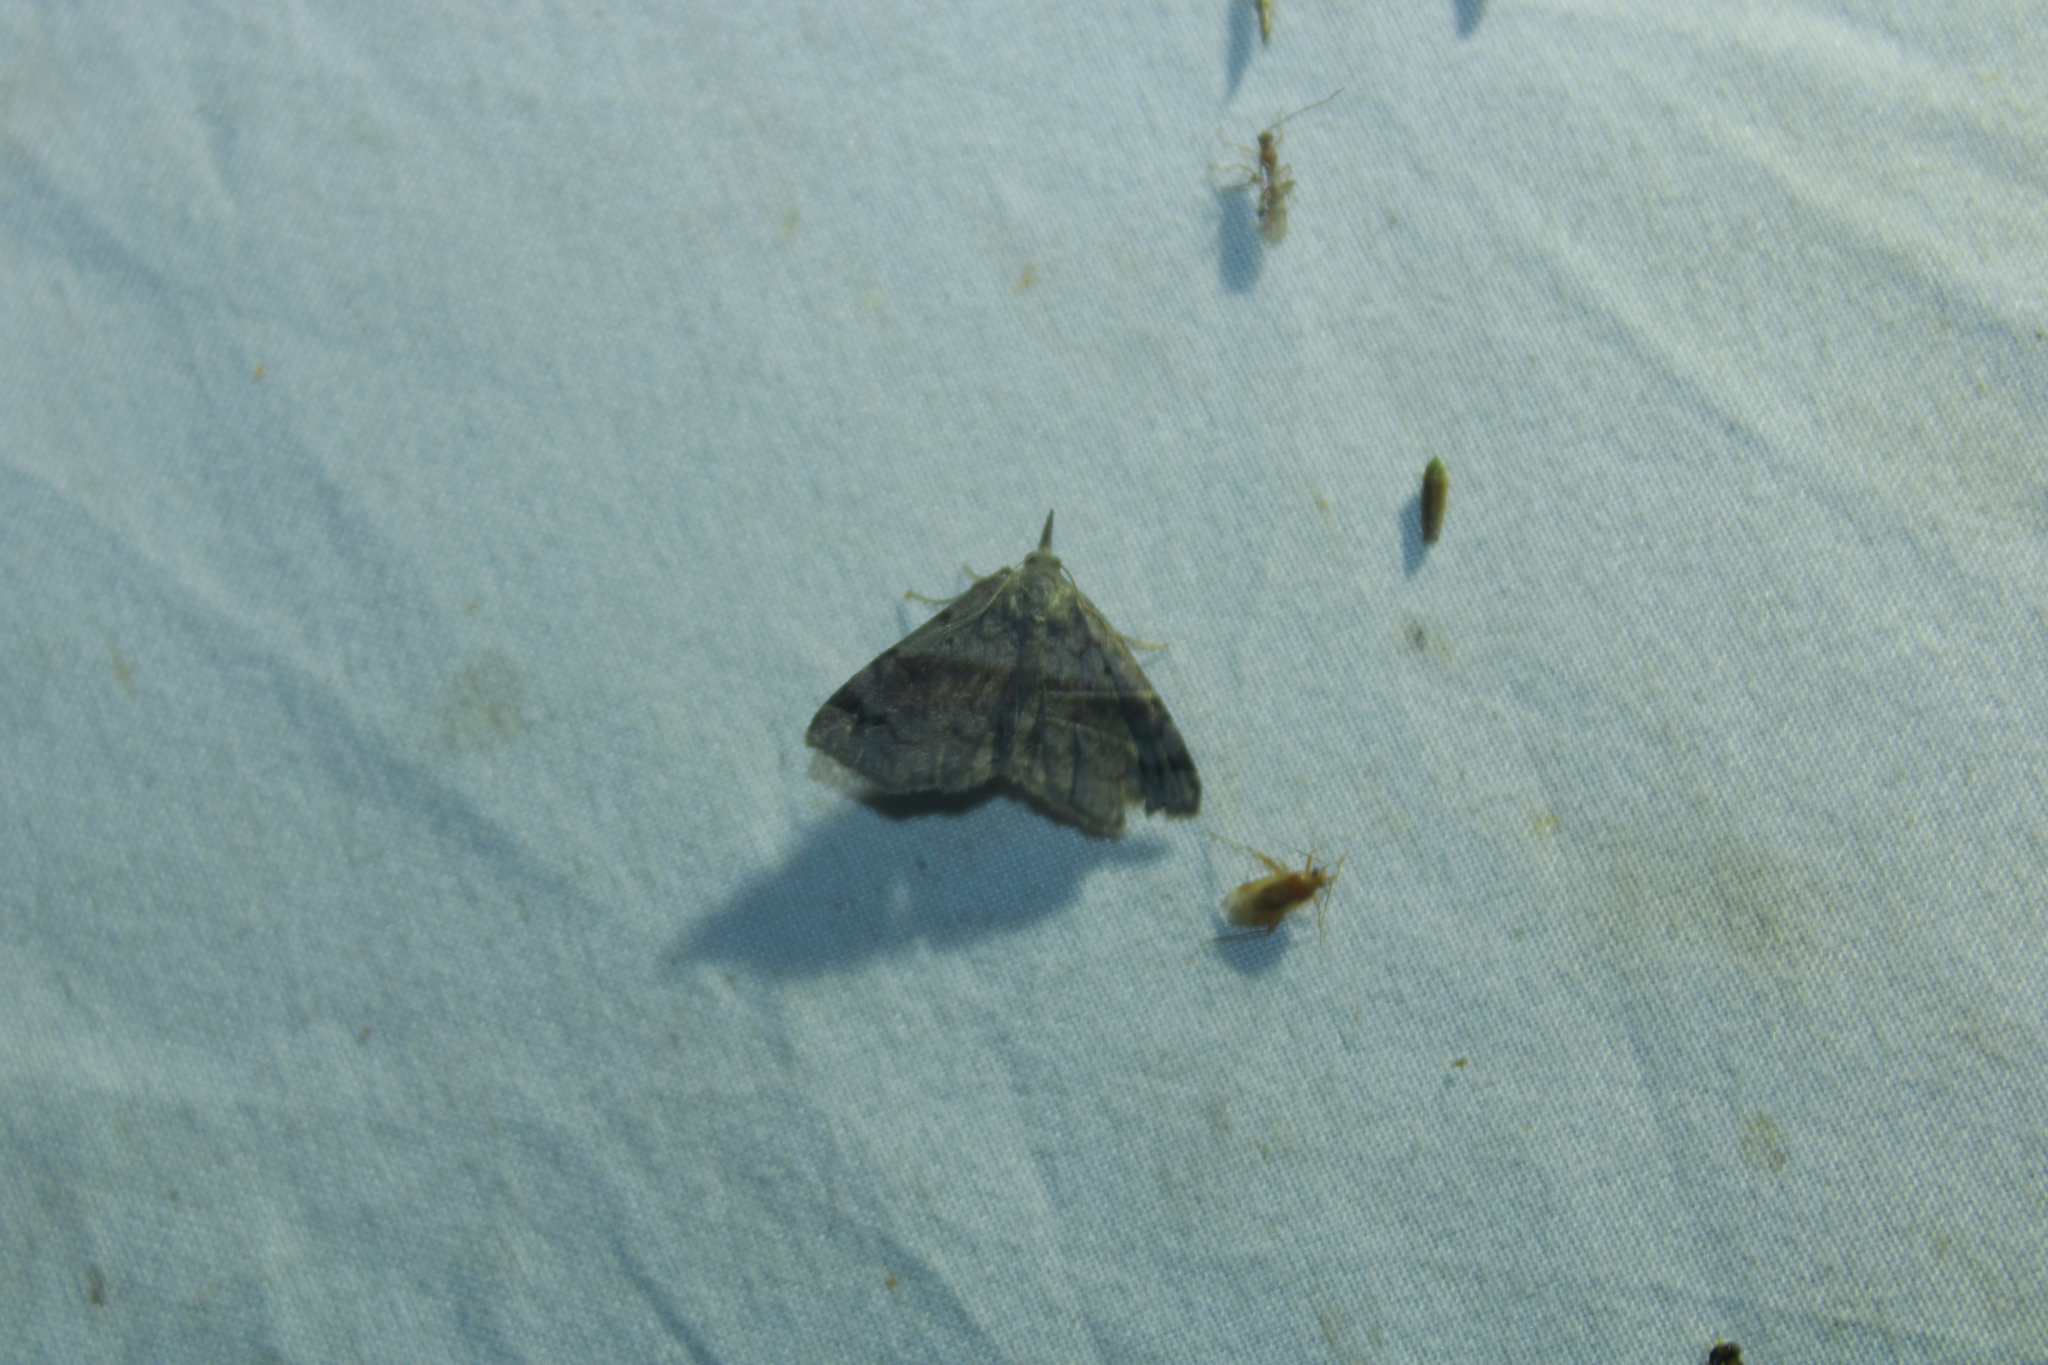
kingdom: Animalia
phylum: Arthropoda
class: Insecta
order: Lepidoptera
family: Erebidae
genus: Spargaloma
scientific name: Spargaloma sexpunctata
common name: Six-spotted gray
